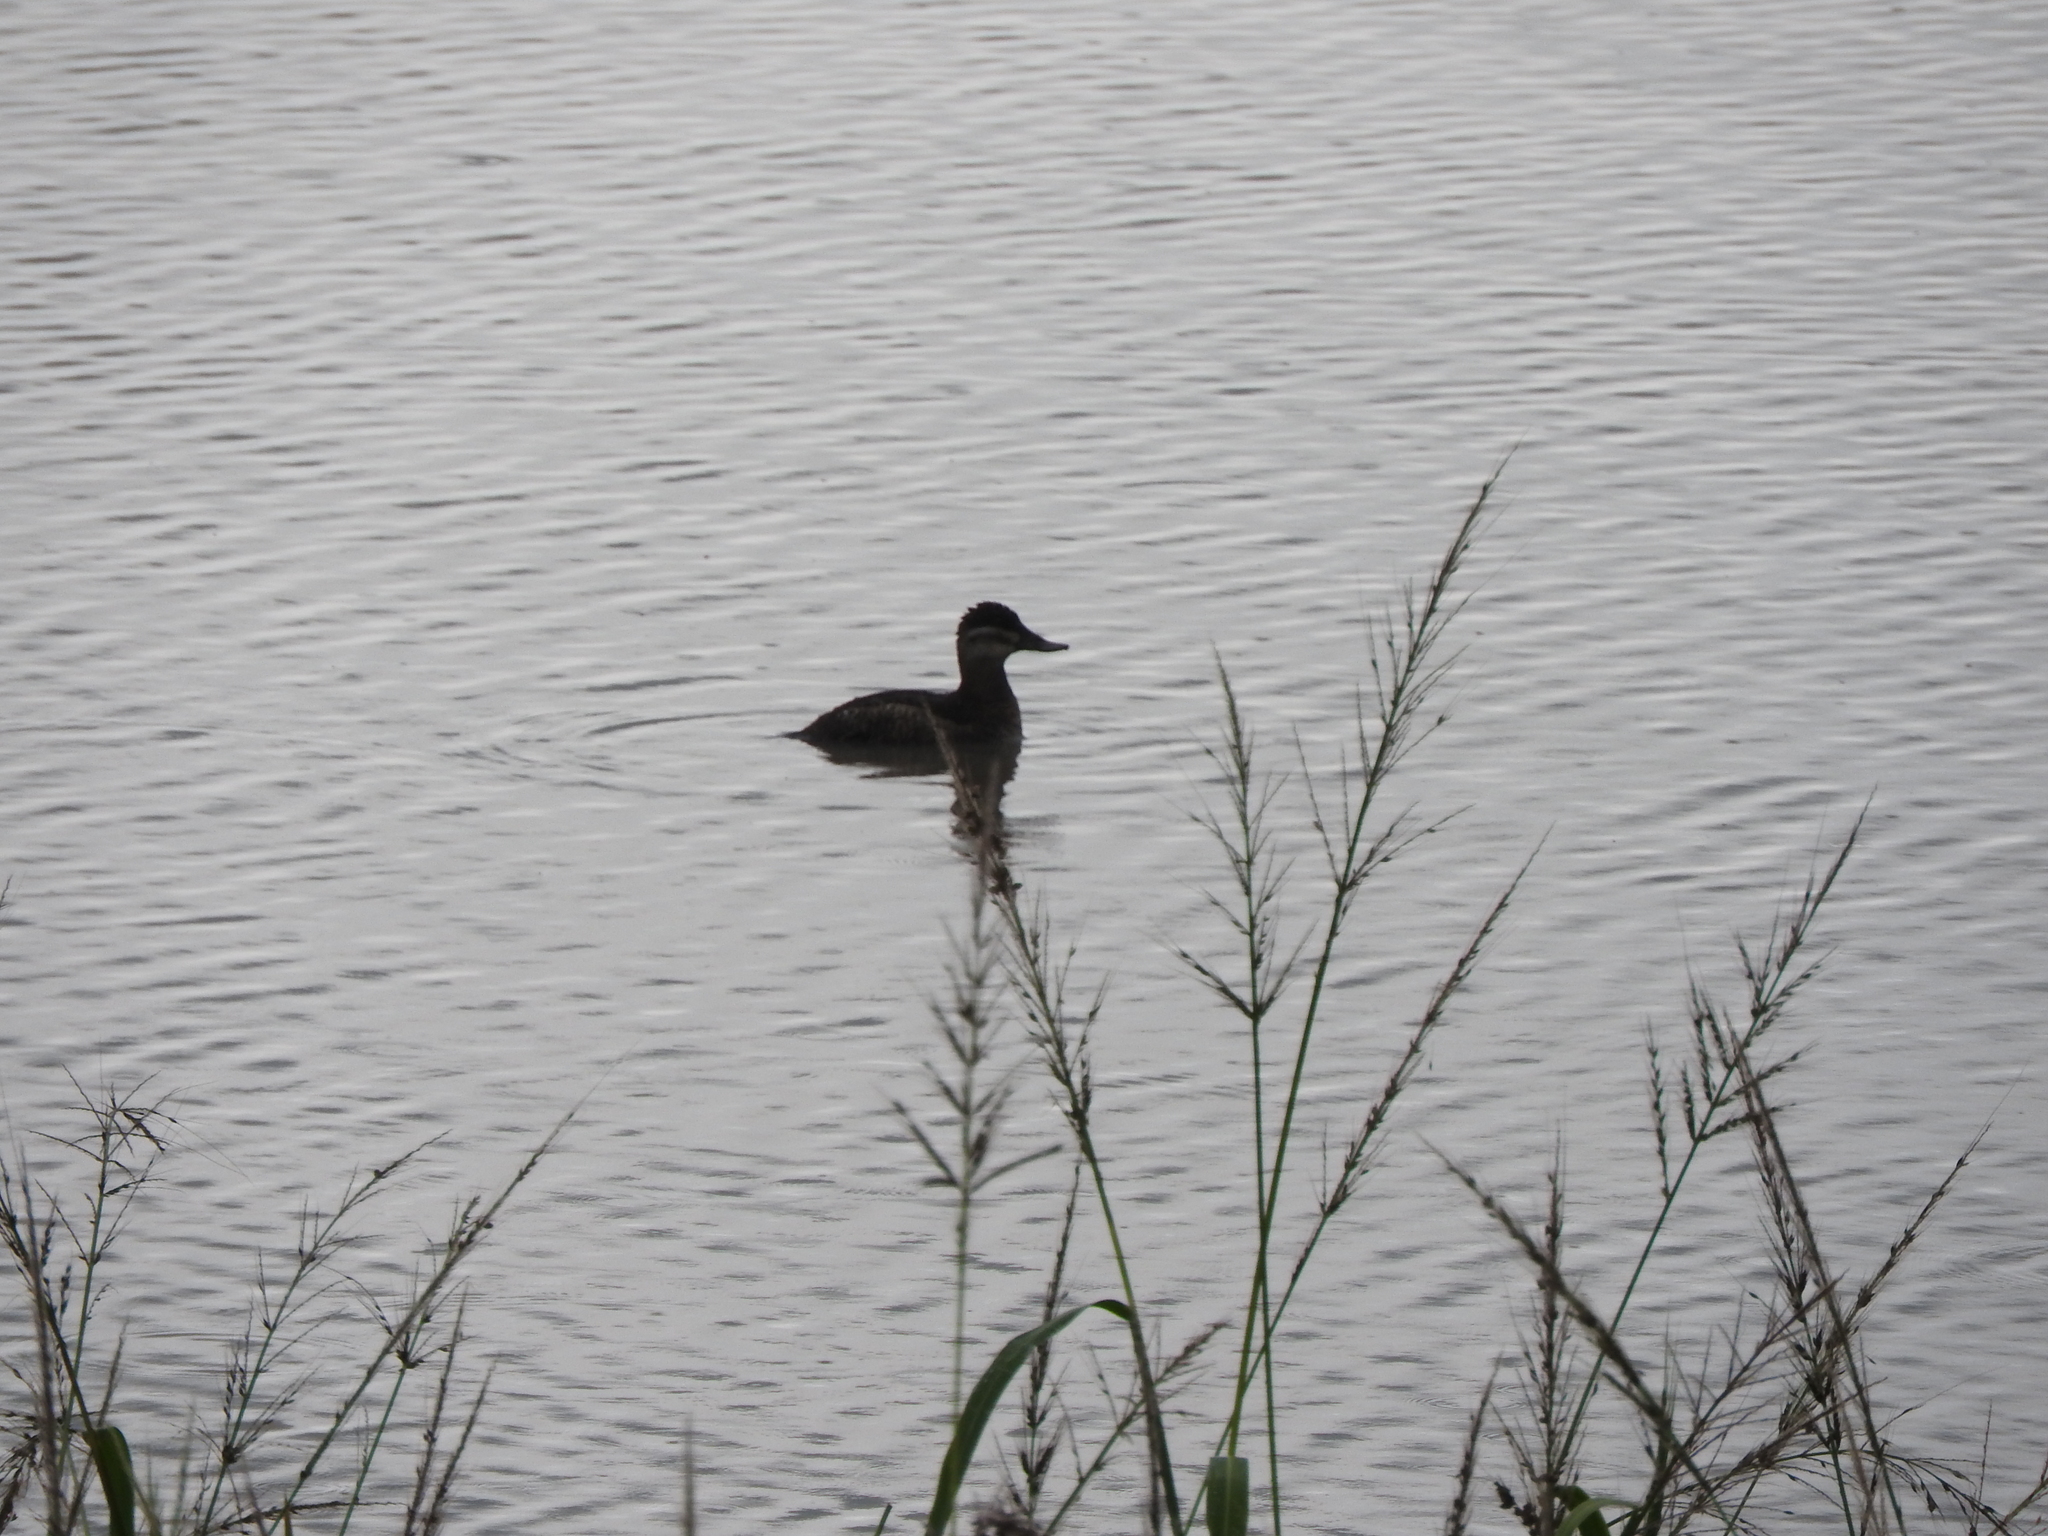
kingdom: Animalia
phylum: Chordata
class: Aves
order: Anseriformes
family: Anatidae
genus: Oxyura
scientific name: Oxyura jamaicensis
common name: Ruddy duck
